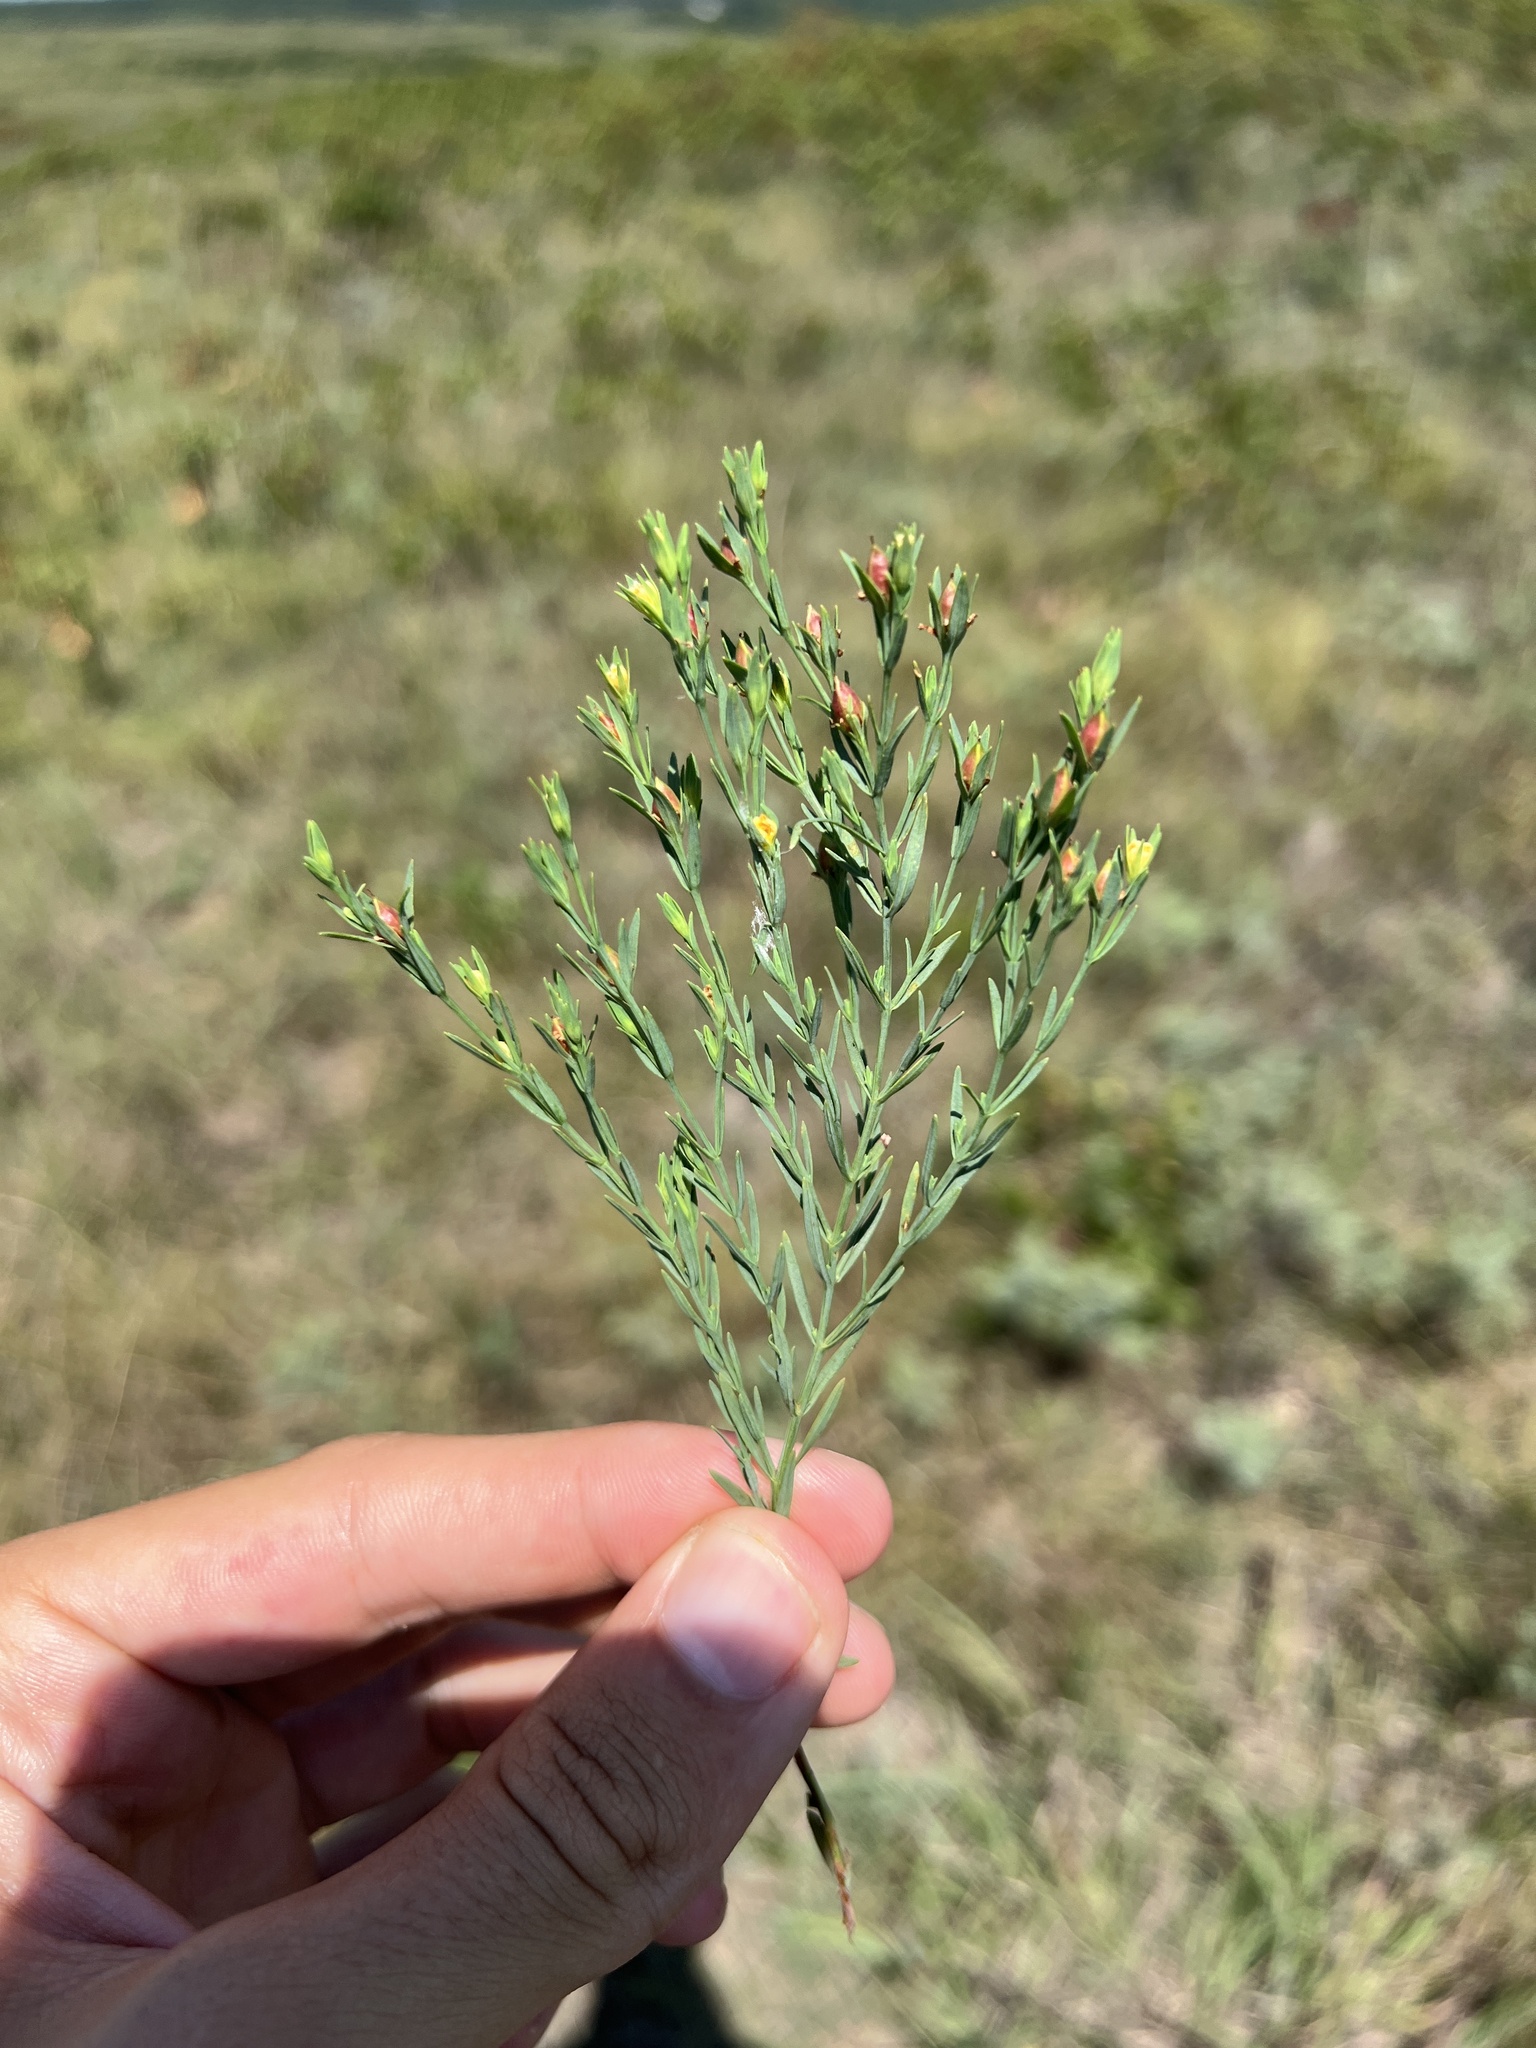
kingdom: Plantae
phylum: Tracheophyta
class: Magnoliopsida
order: Malpighiales
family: Hypericaceae
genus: Hypericum
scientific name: Hypericum drummondii
